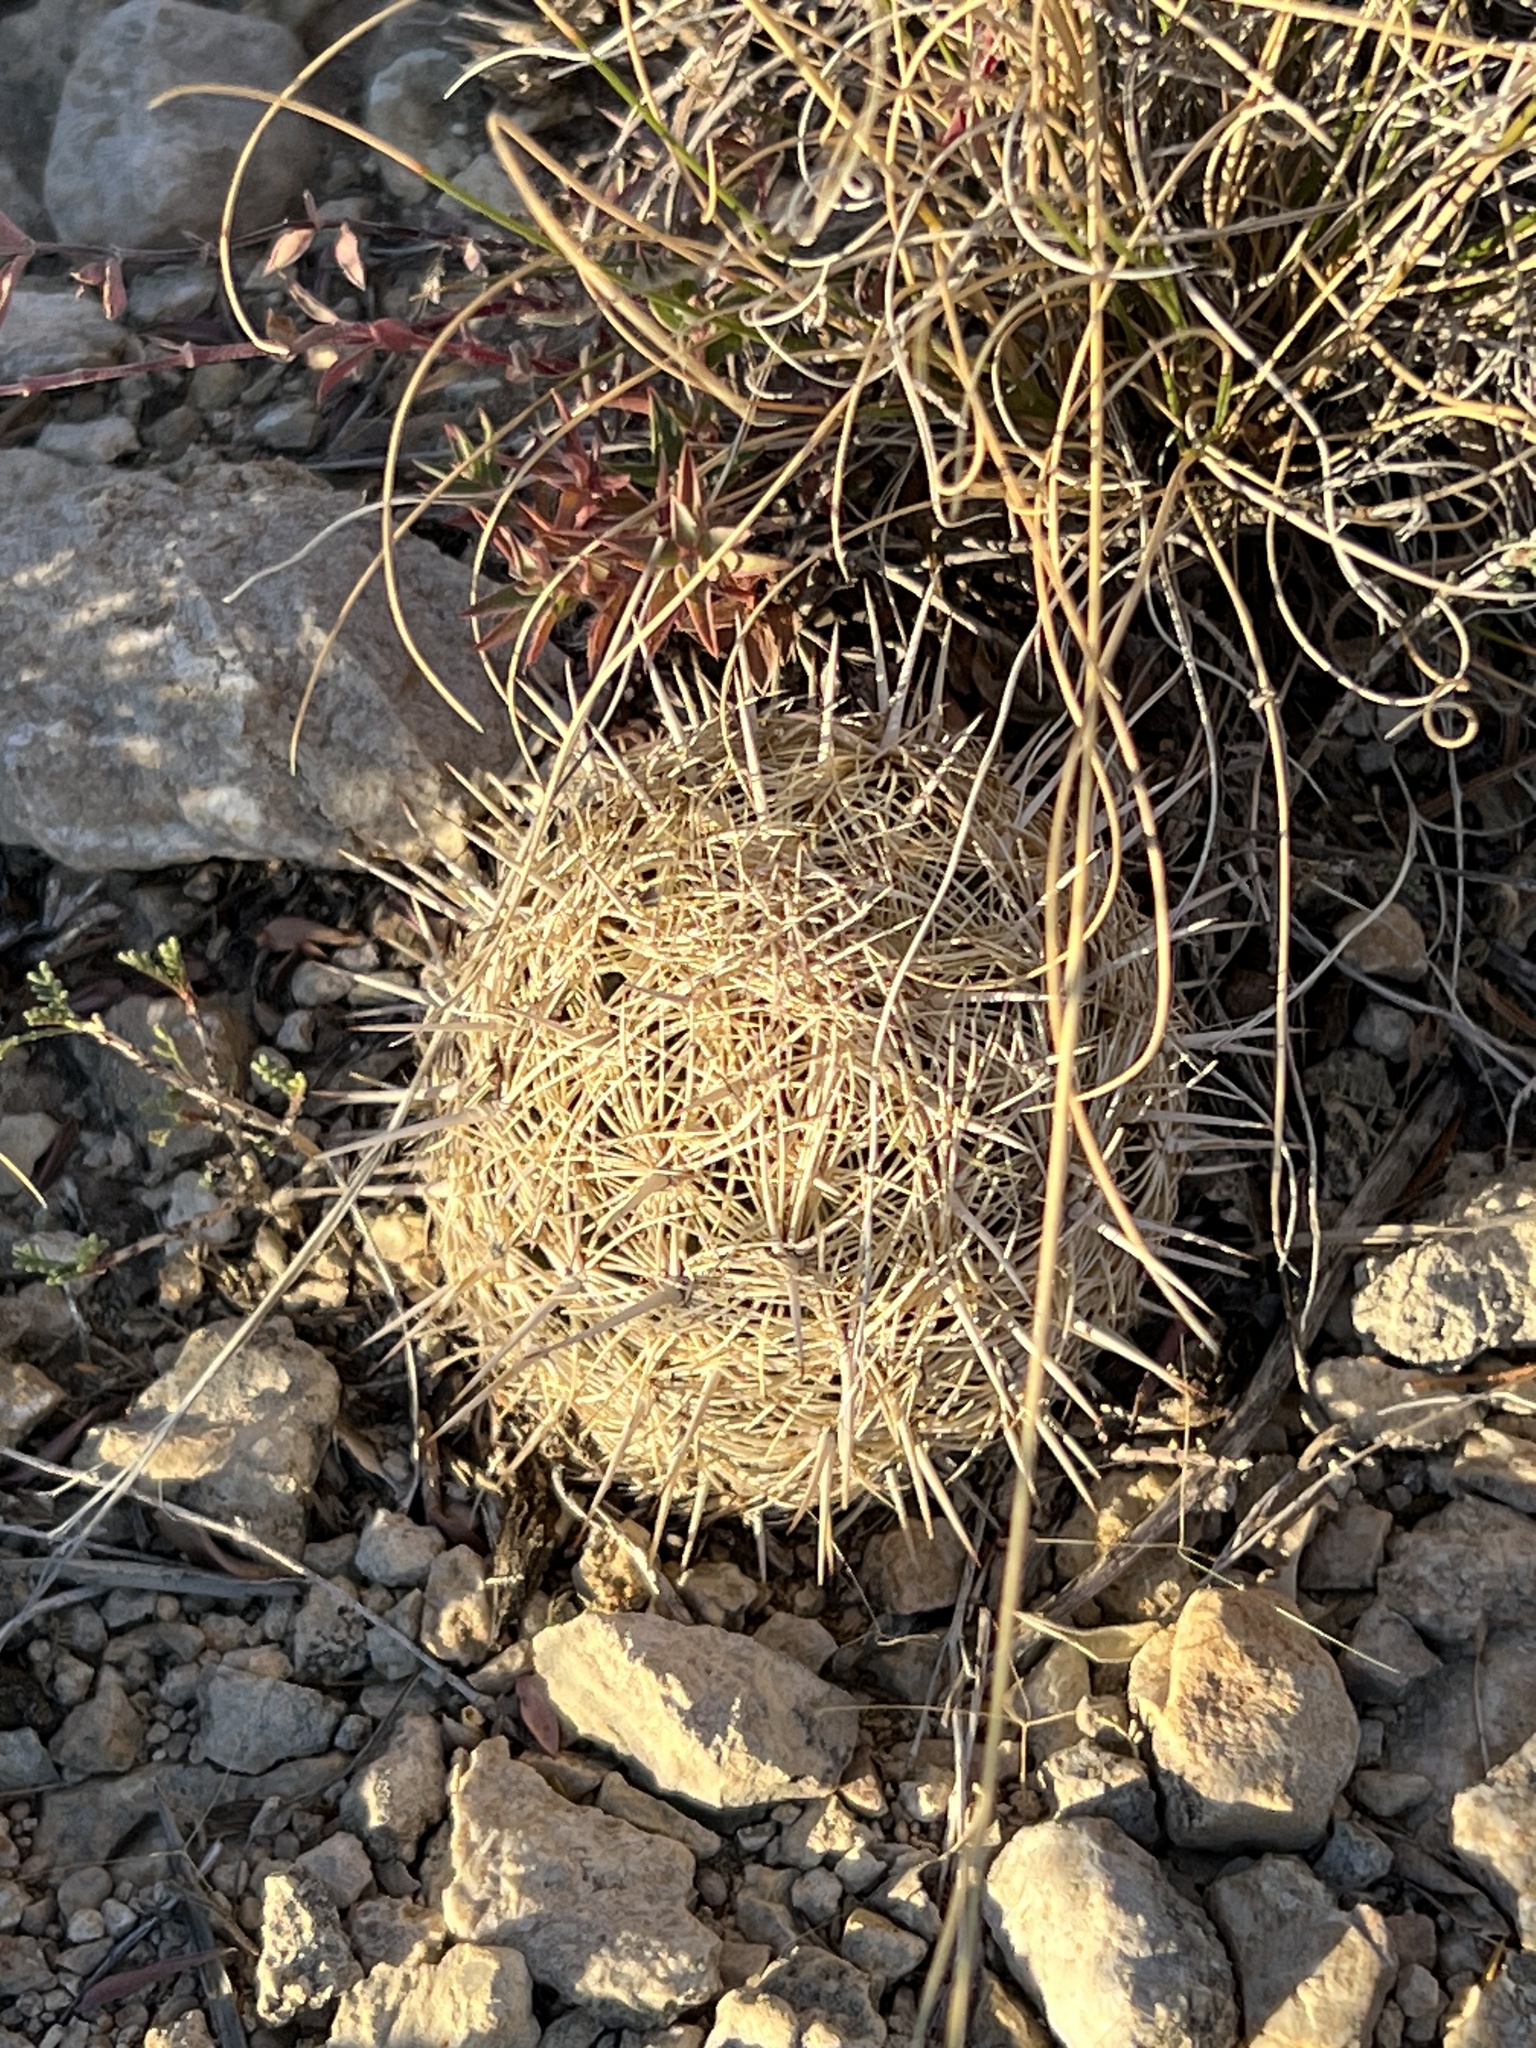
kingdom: Plantae
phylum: Tracheophyta
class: Magnoliopsida
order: Caryophyllales
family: Cactaceae
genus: Coryphantha
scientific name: Coryphantha echinus
